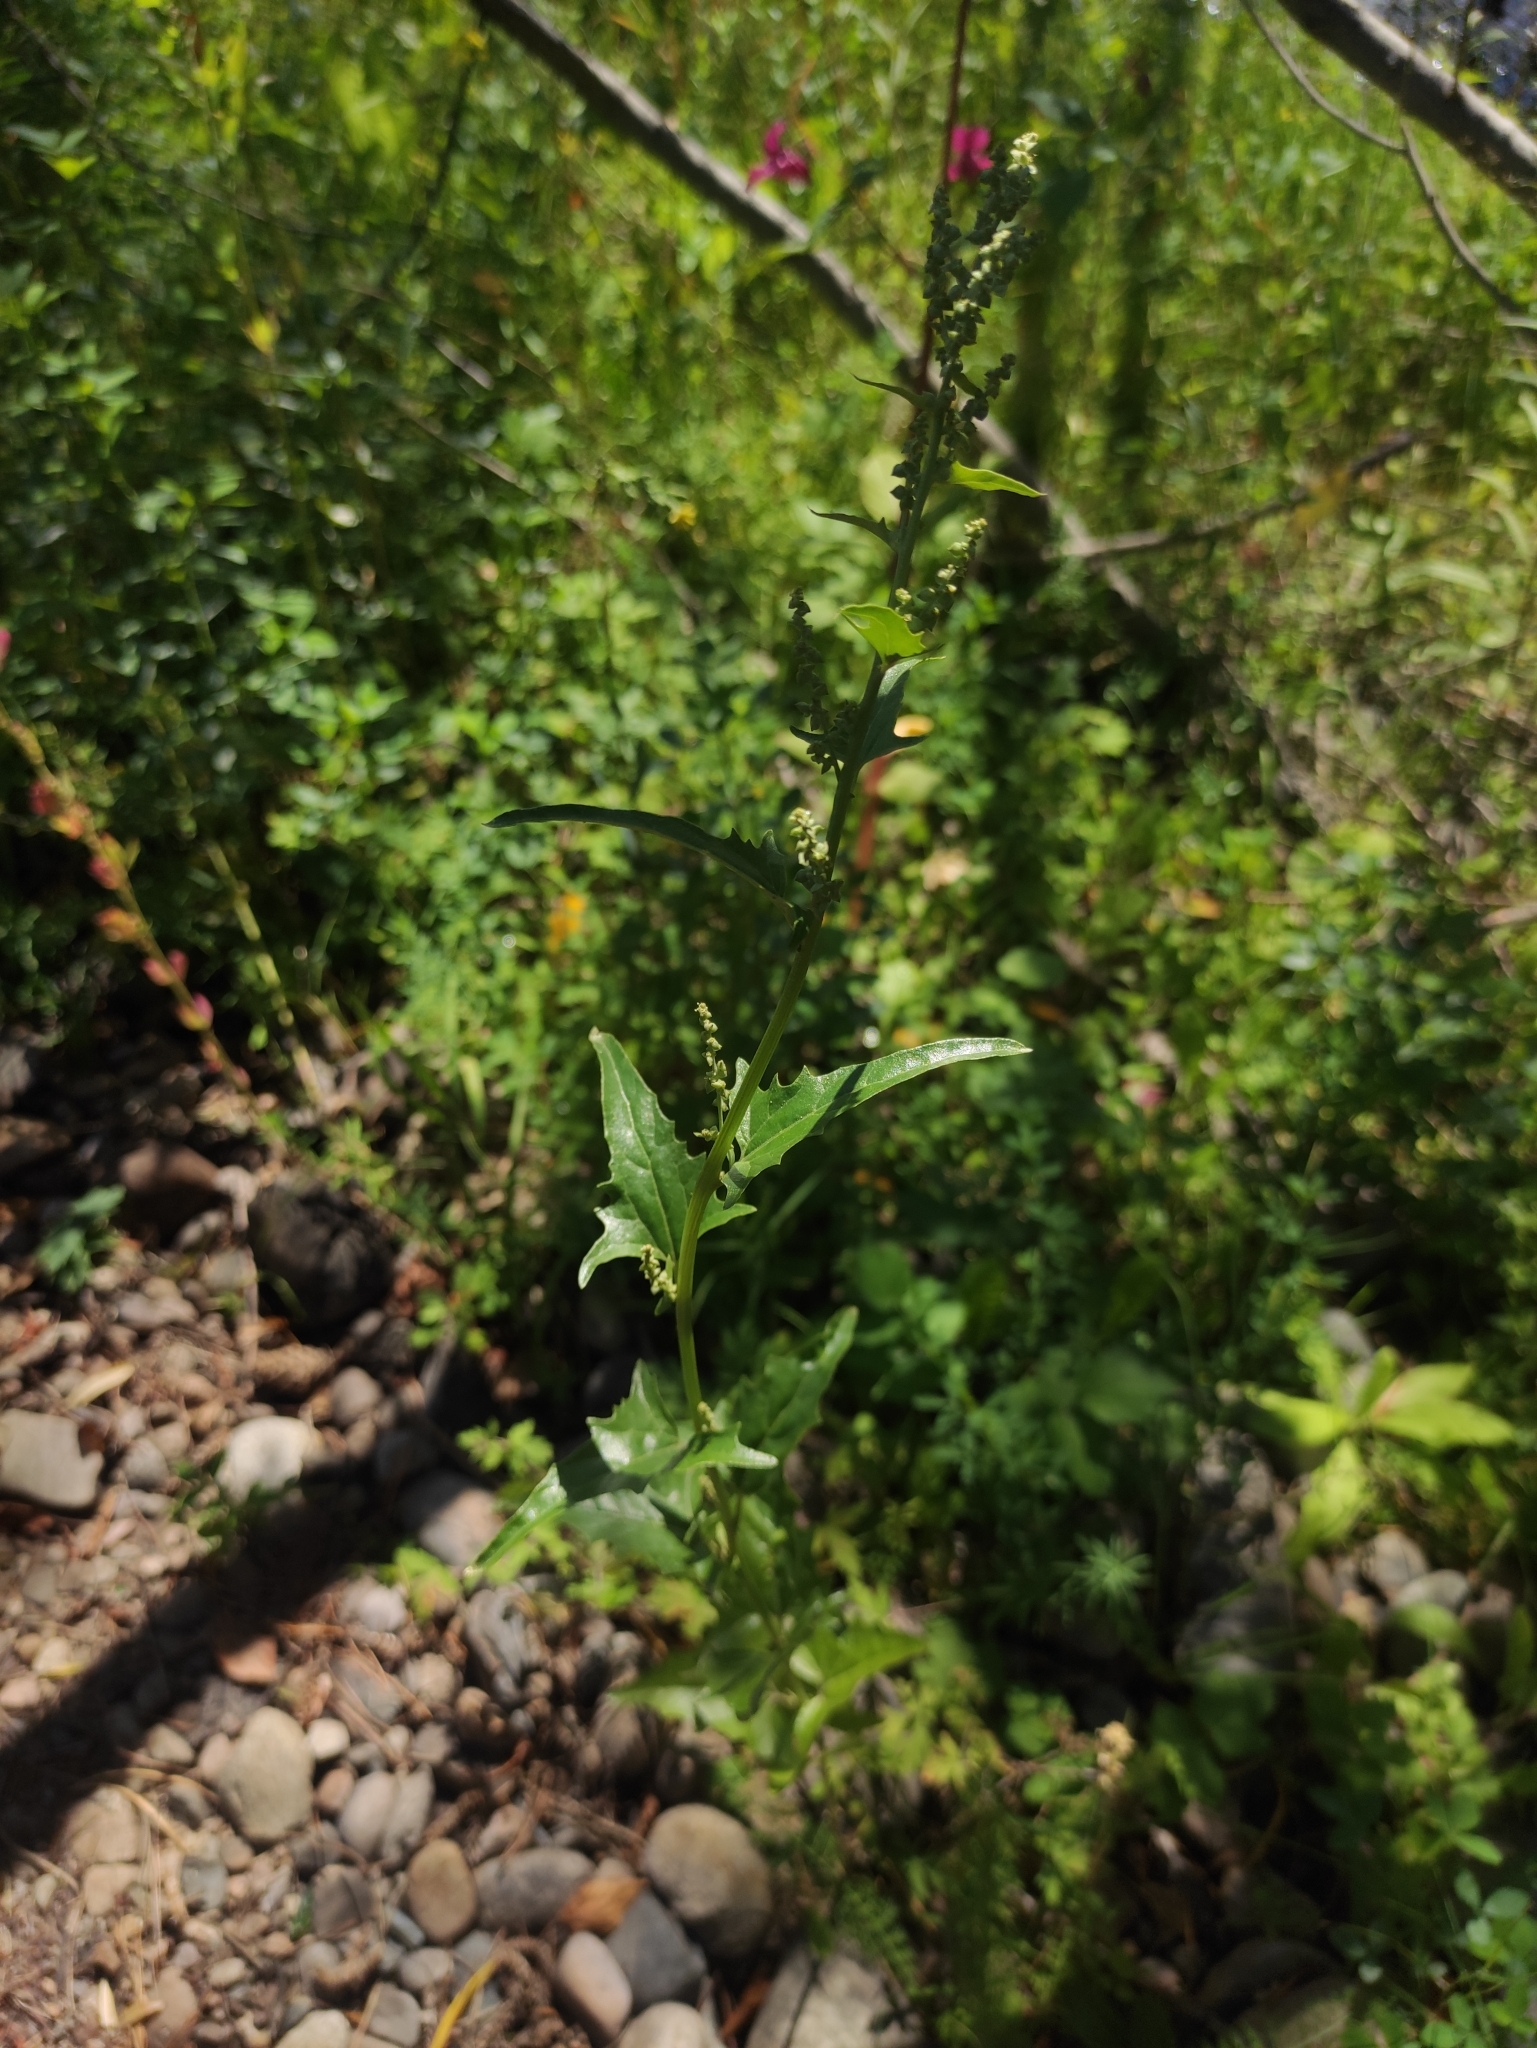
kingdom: Plantae
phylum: Tracheophyta
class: Magnoliopsida
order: Caryophyllales
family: Amaranthaceae
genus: Atriplex
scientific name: Atriplex sagittata
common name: Purple orache
